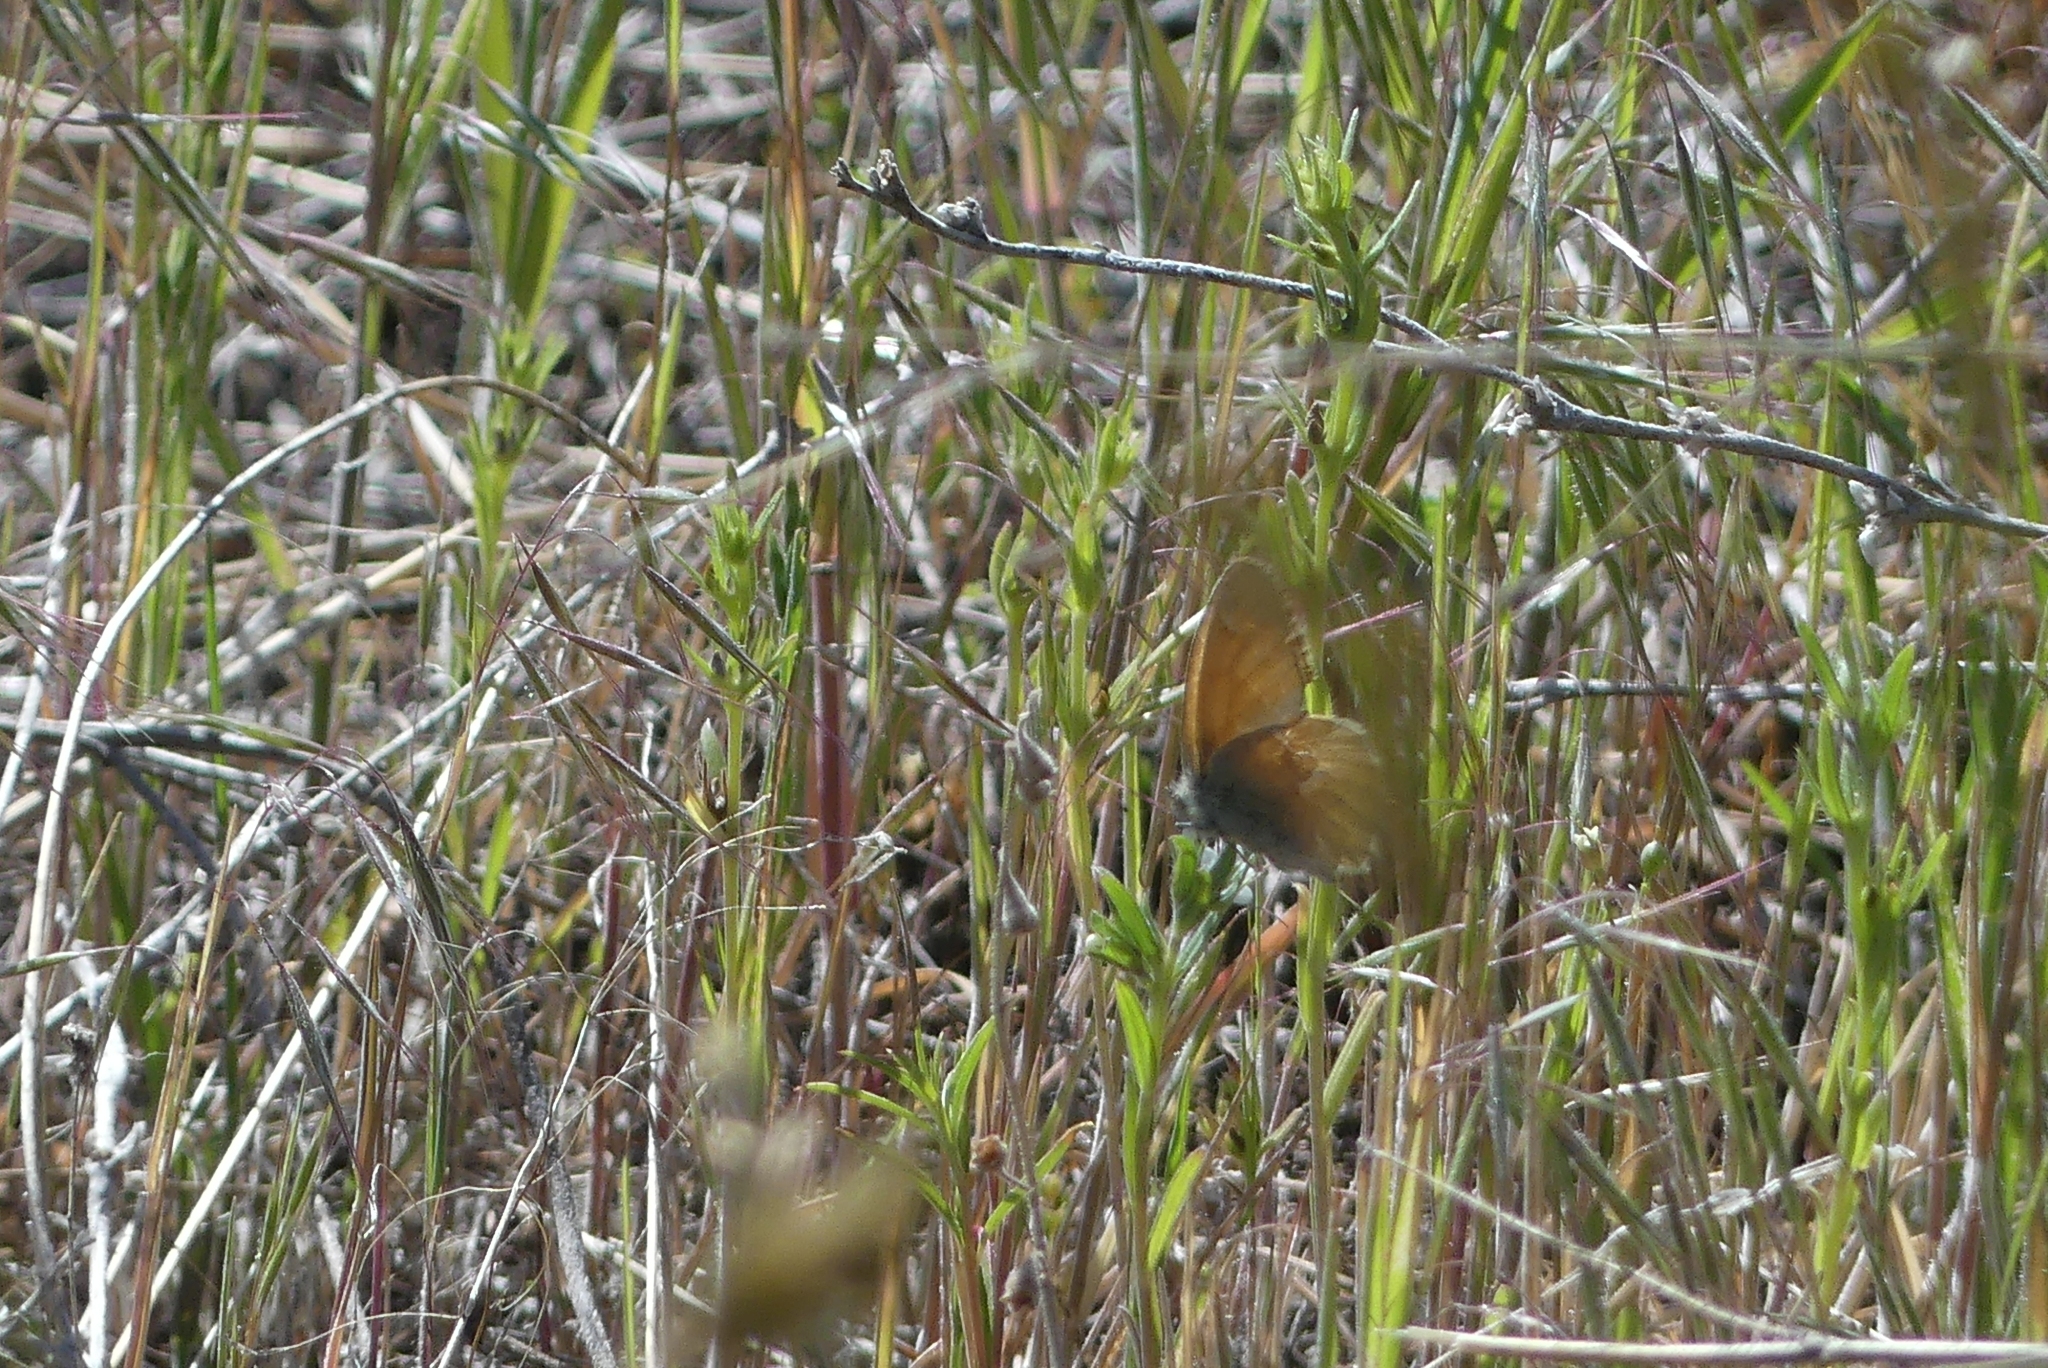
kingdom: Animalia
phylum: Arthropoda
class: Insecta
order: Lepidoptera
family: Nymphalidae
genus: Coenonympha
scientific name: Coenonympha california
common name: Common ringlet
